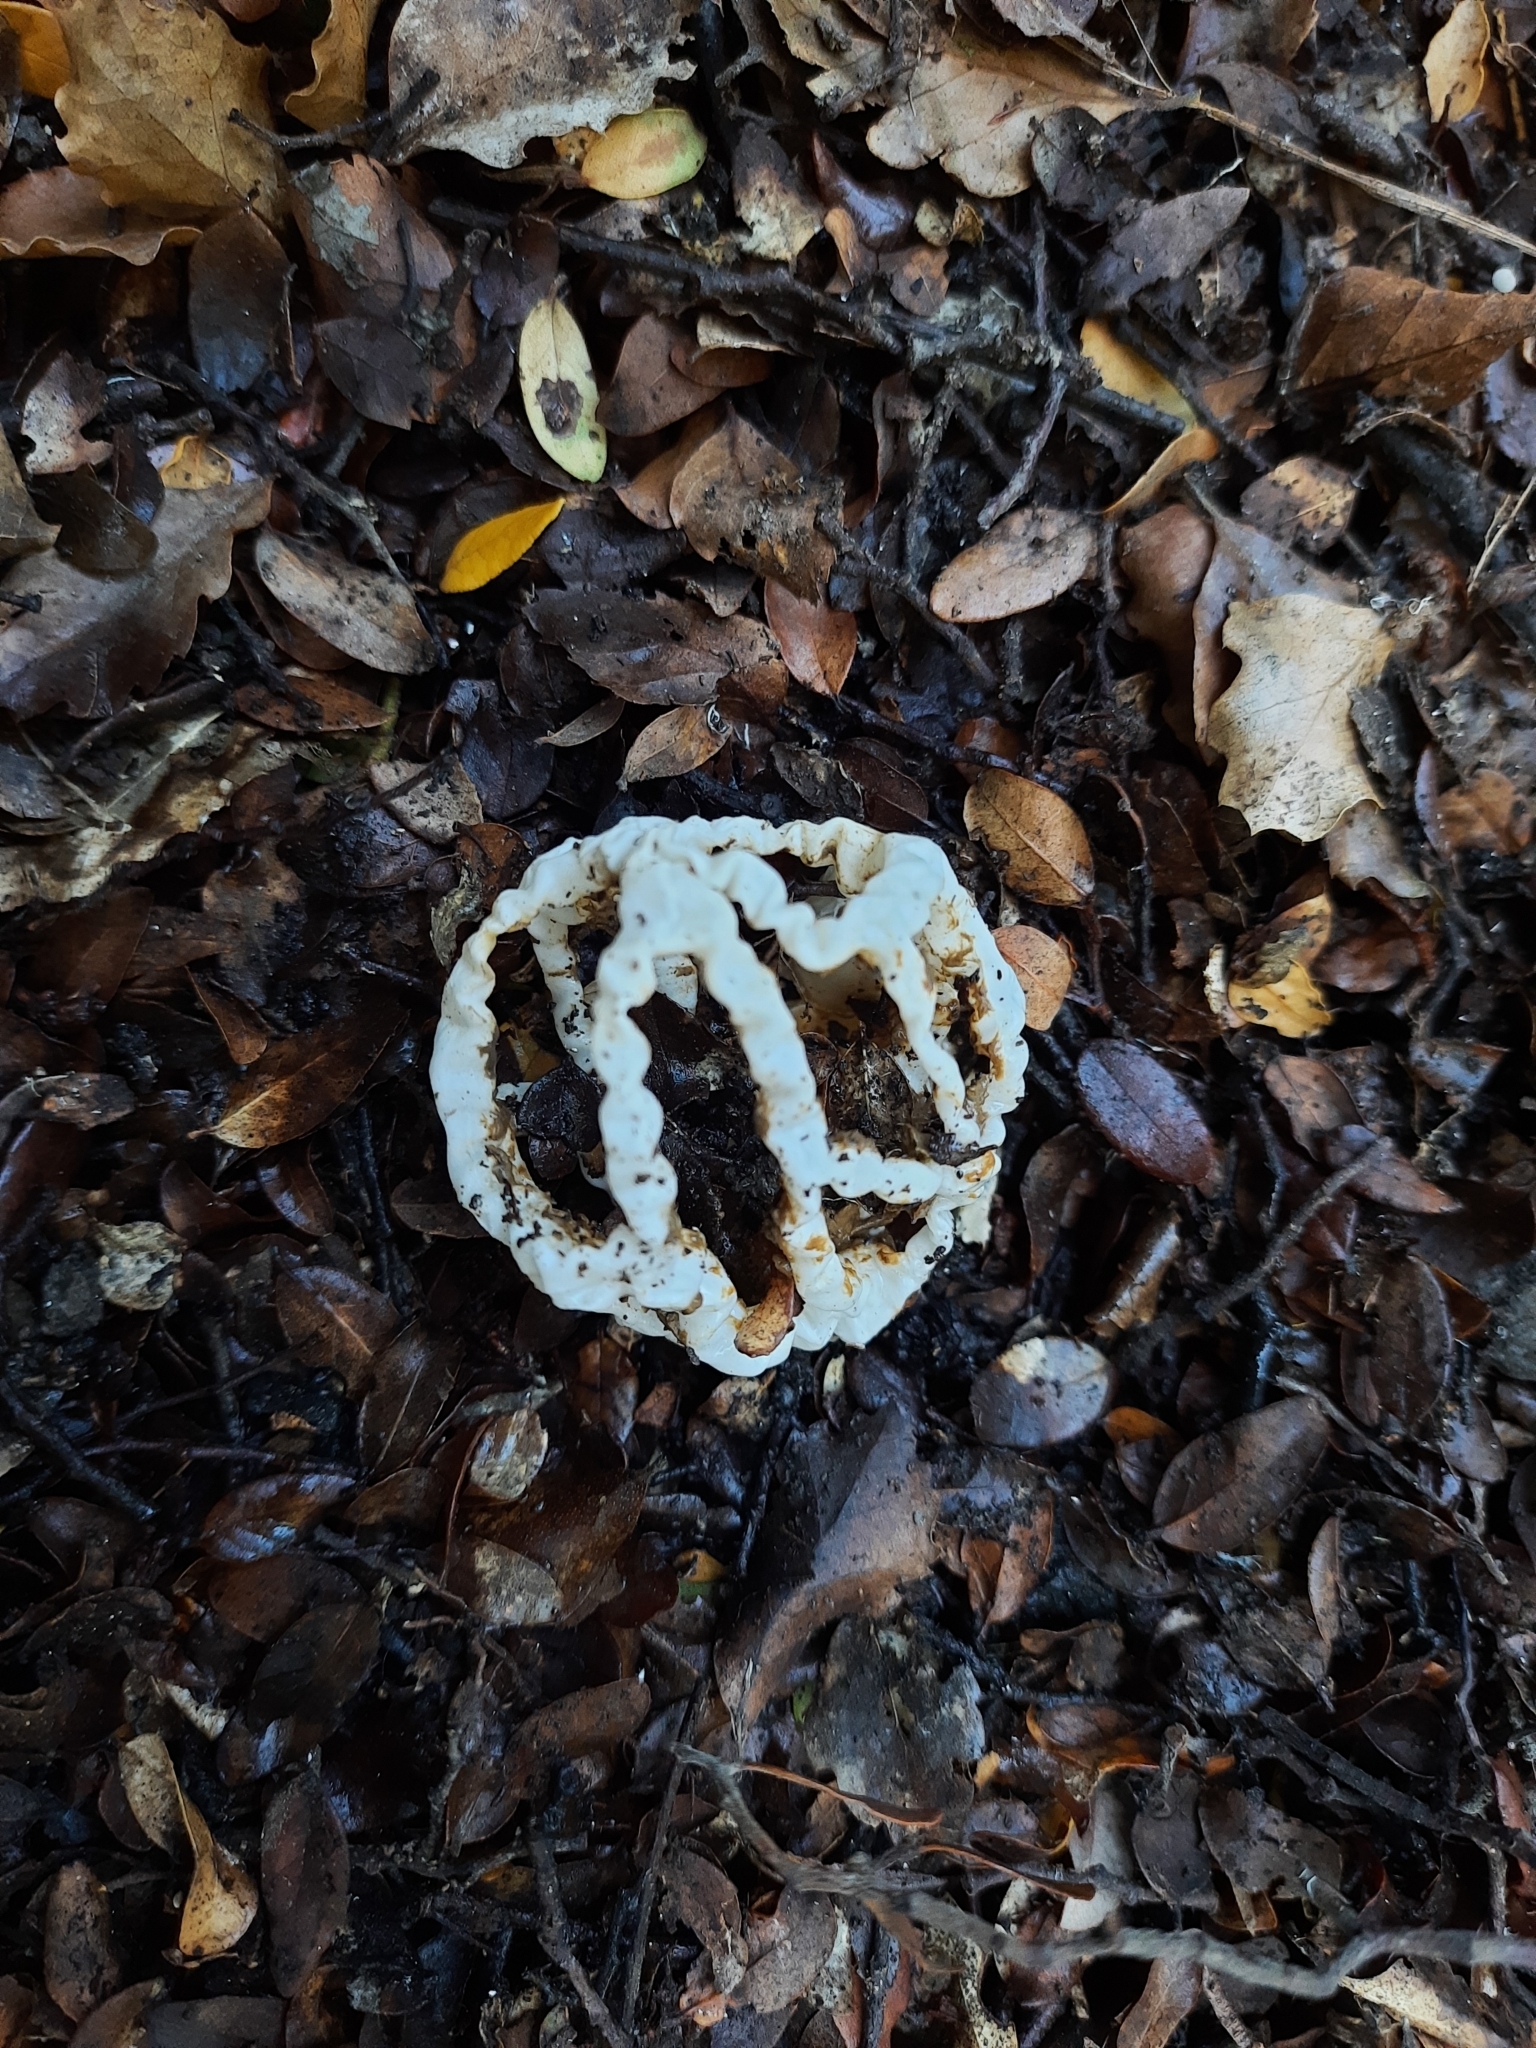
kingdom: Fungi
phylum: Basidiomycota
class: Agaricomycetes
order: Phallales
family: Phallaceae
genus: Ileodictyon
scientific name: Ileodictyon cibarium
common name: Basket fungus
